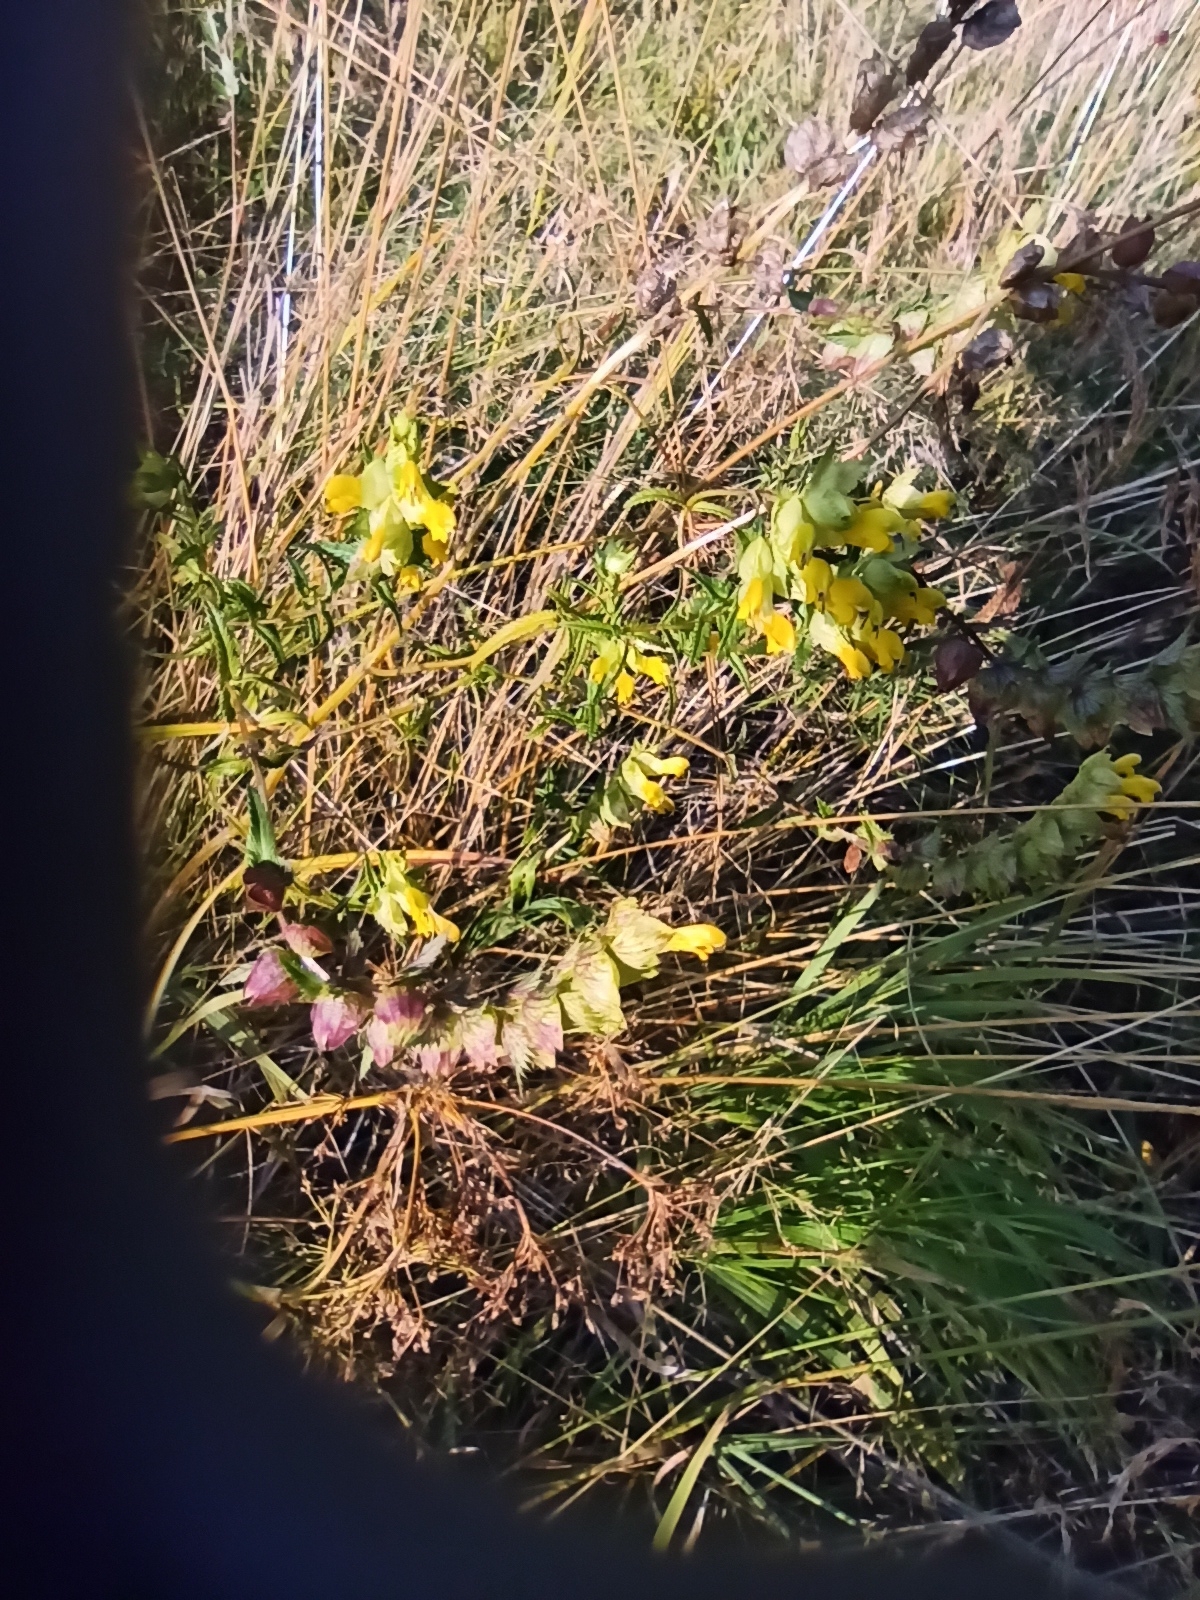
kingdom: Plantae
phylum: Tracheophyta
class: Magnoliopsida
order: Lamiales
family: Orobanchaceae
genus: Rhinanthus
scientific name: Rhinanthus serotinus
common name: Late-flowering yellow rattle
